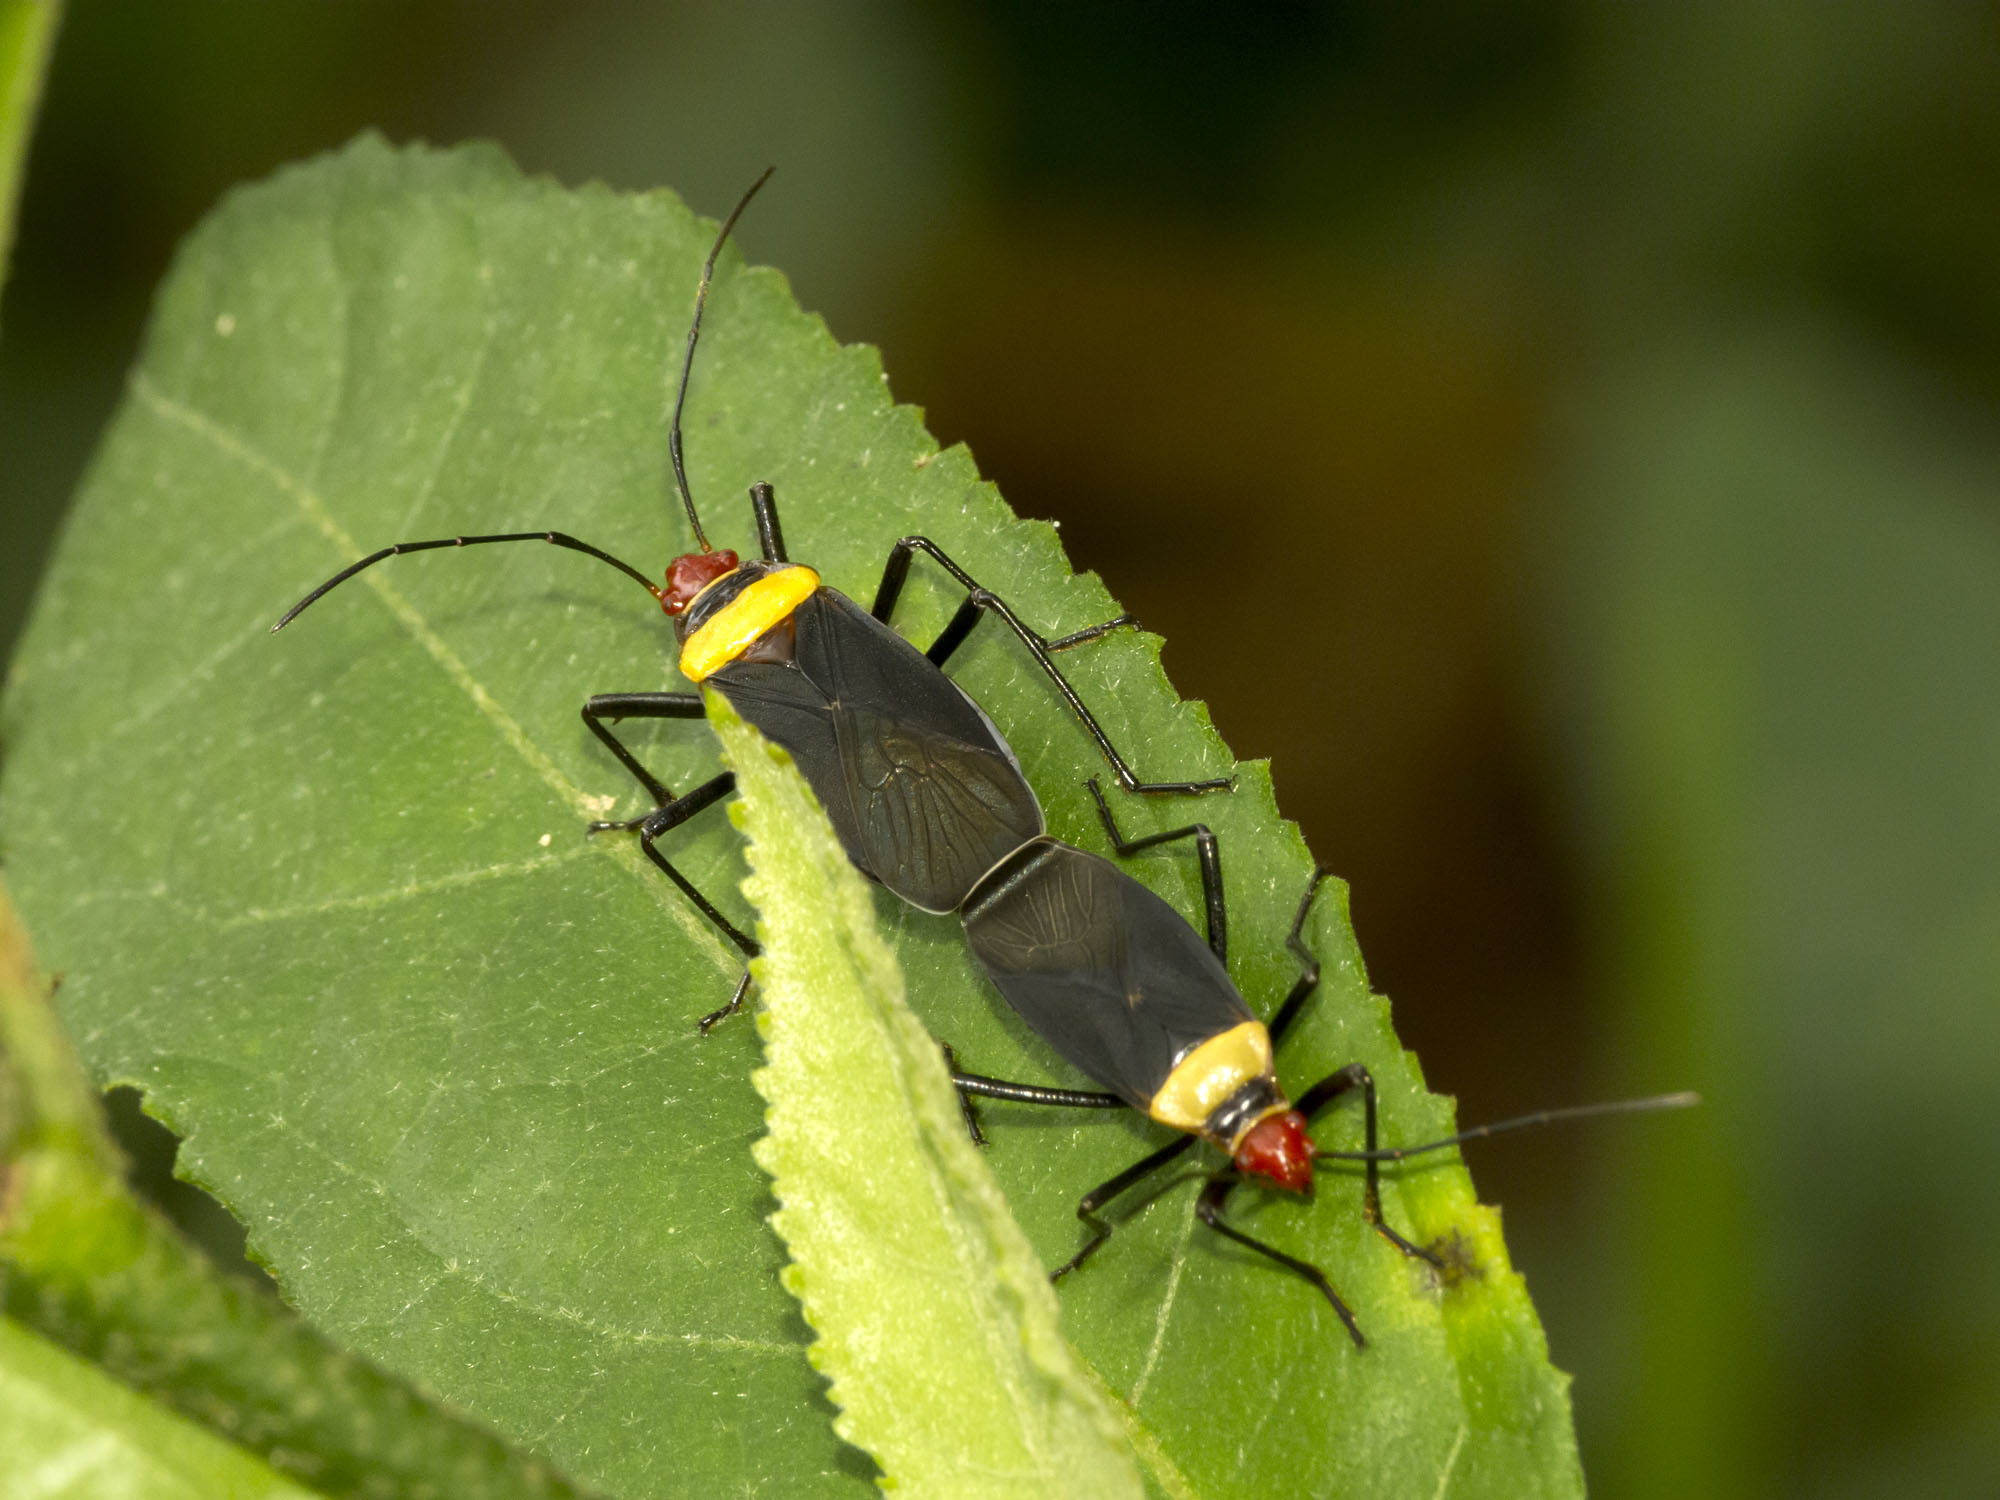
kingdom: Animalia
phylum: Arthropoda
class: Insecta
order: Hemiptera
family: Pyrrhocoridae
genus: Dysdercus
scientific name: Dysdercus
